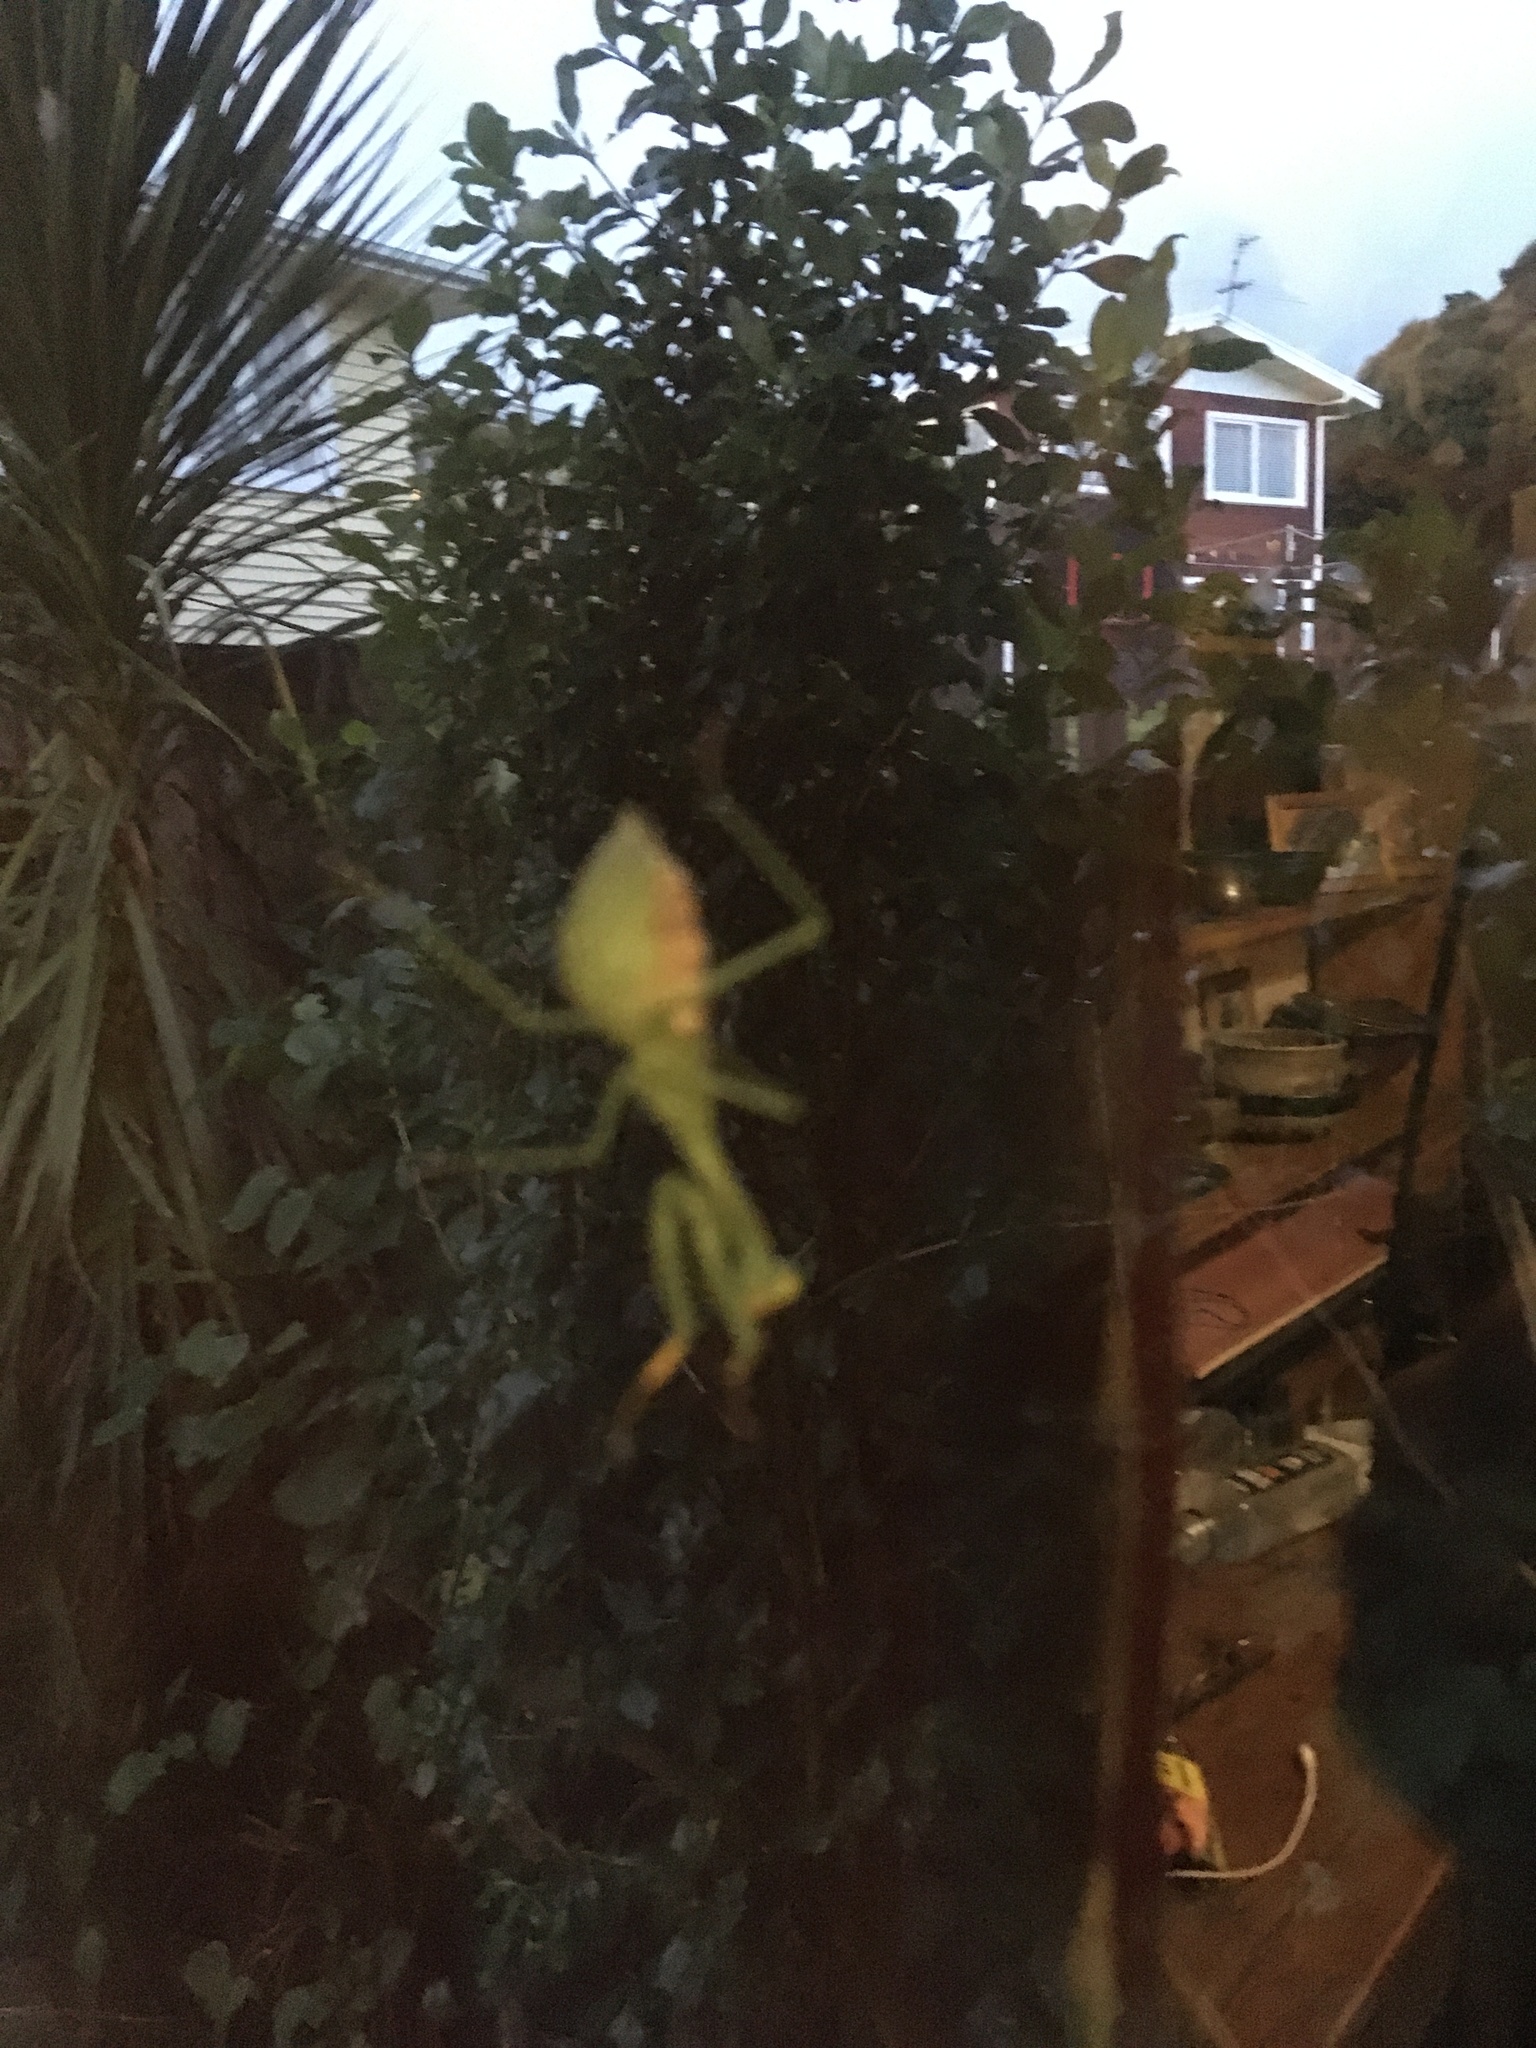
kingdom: Animalia
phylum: Arthropoda
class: Insecta
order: Mantodea
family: Miomantidae
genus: Miomantis
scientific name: Miomantis caffra
